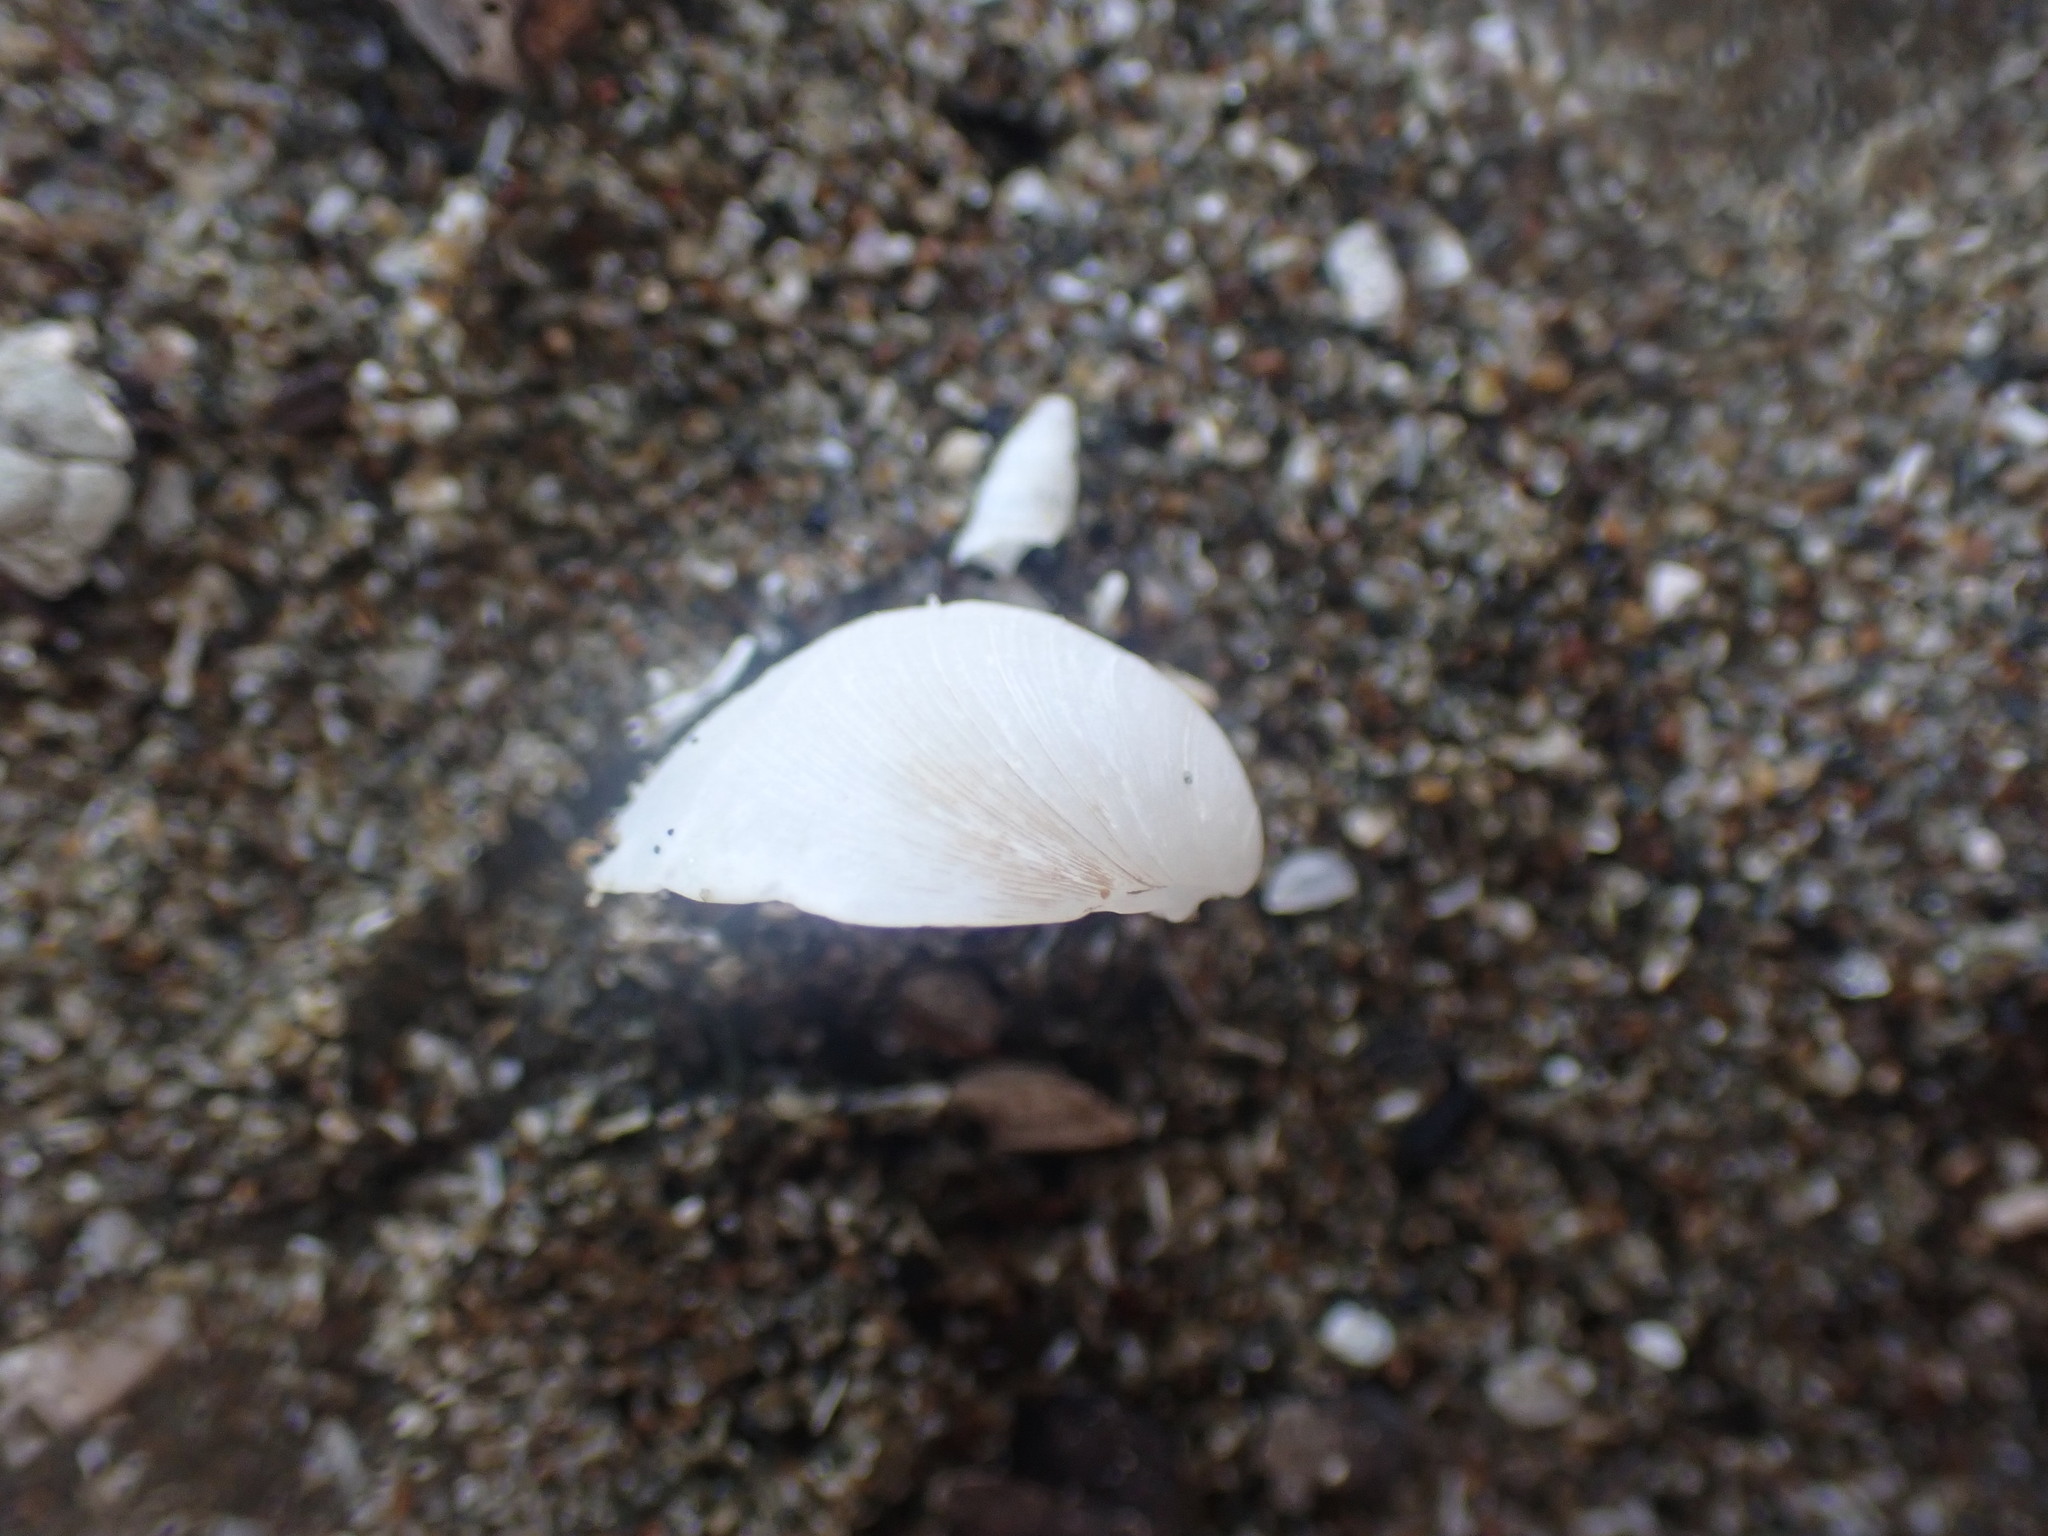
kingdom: Animalia
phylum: Mollusca
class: Bivalvia
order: Venerida
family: Ungulinidae
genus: Zemysina
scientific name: Zemysina striatula
